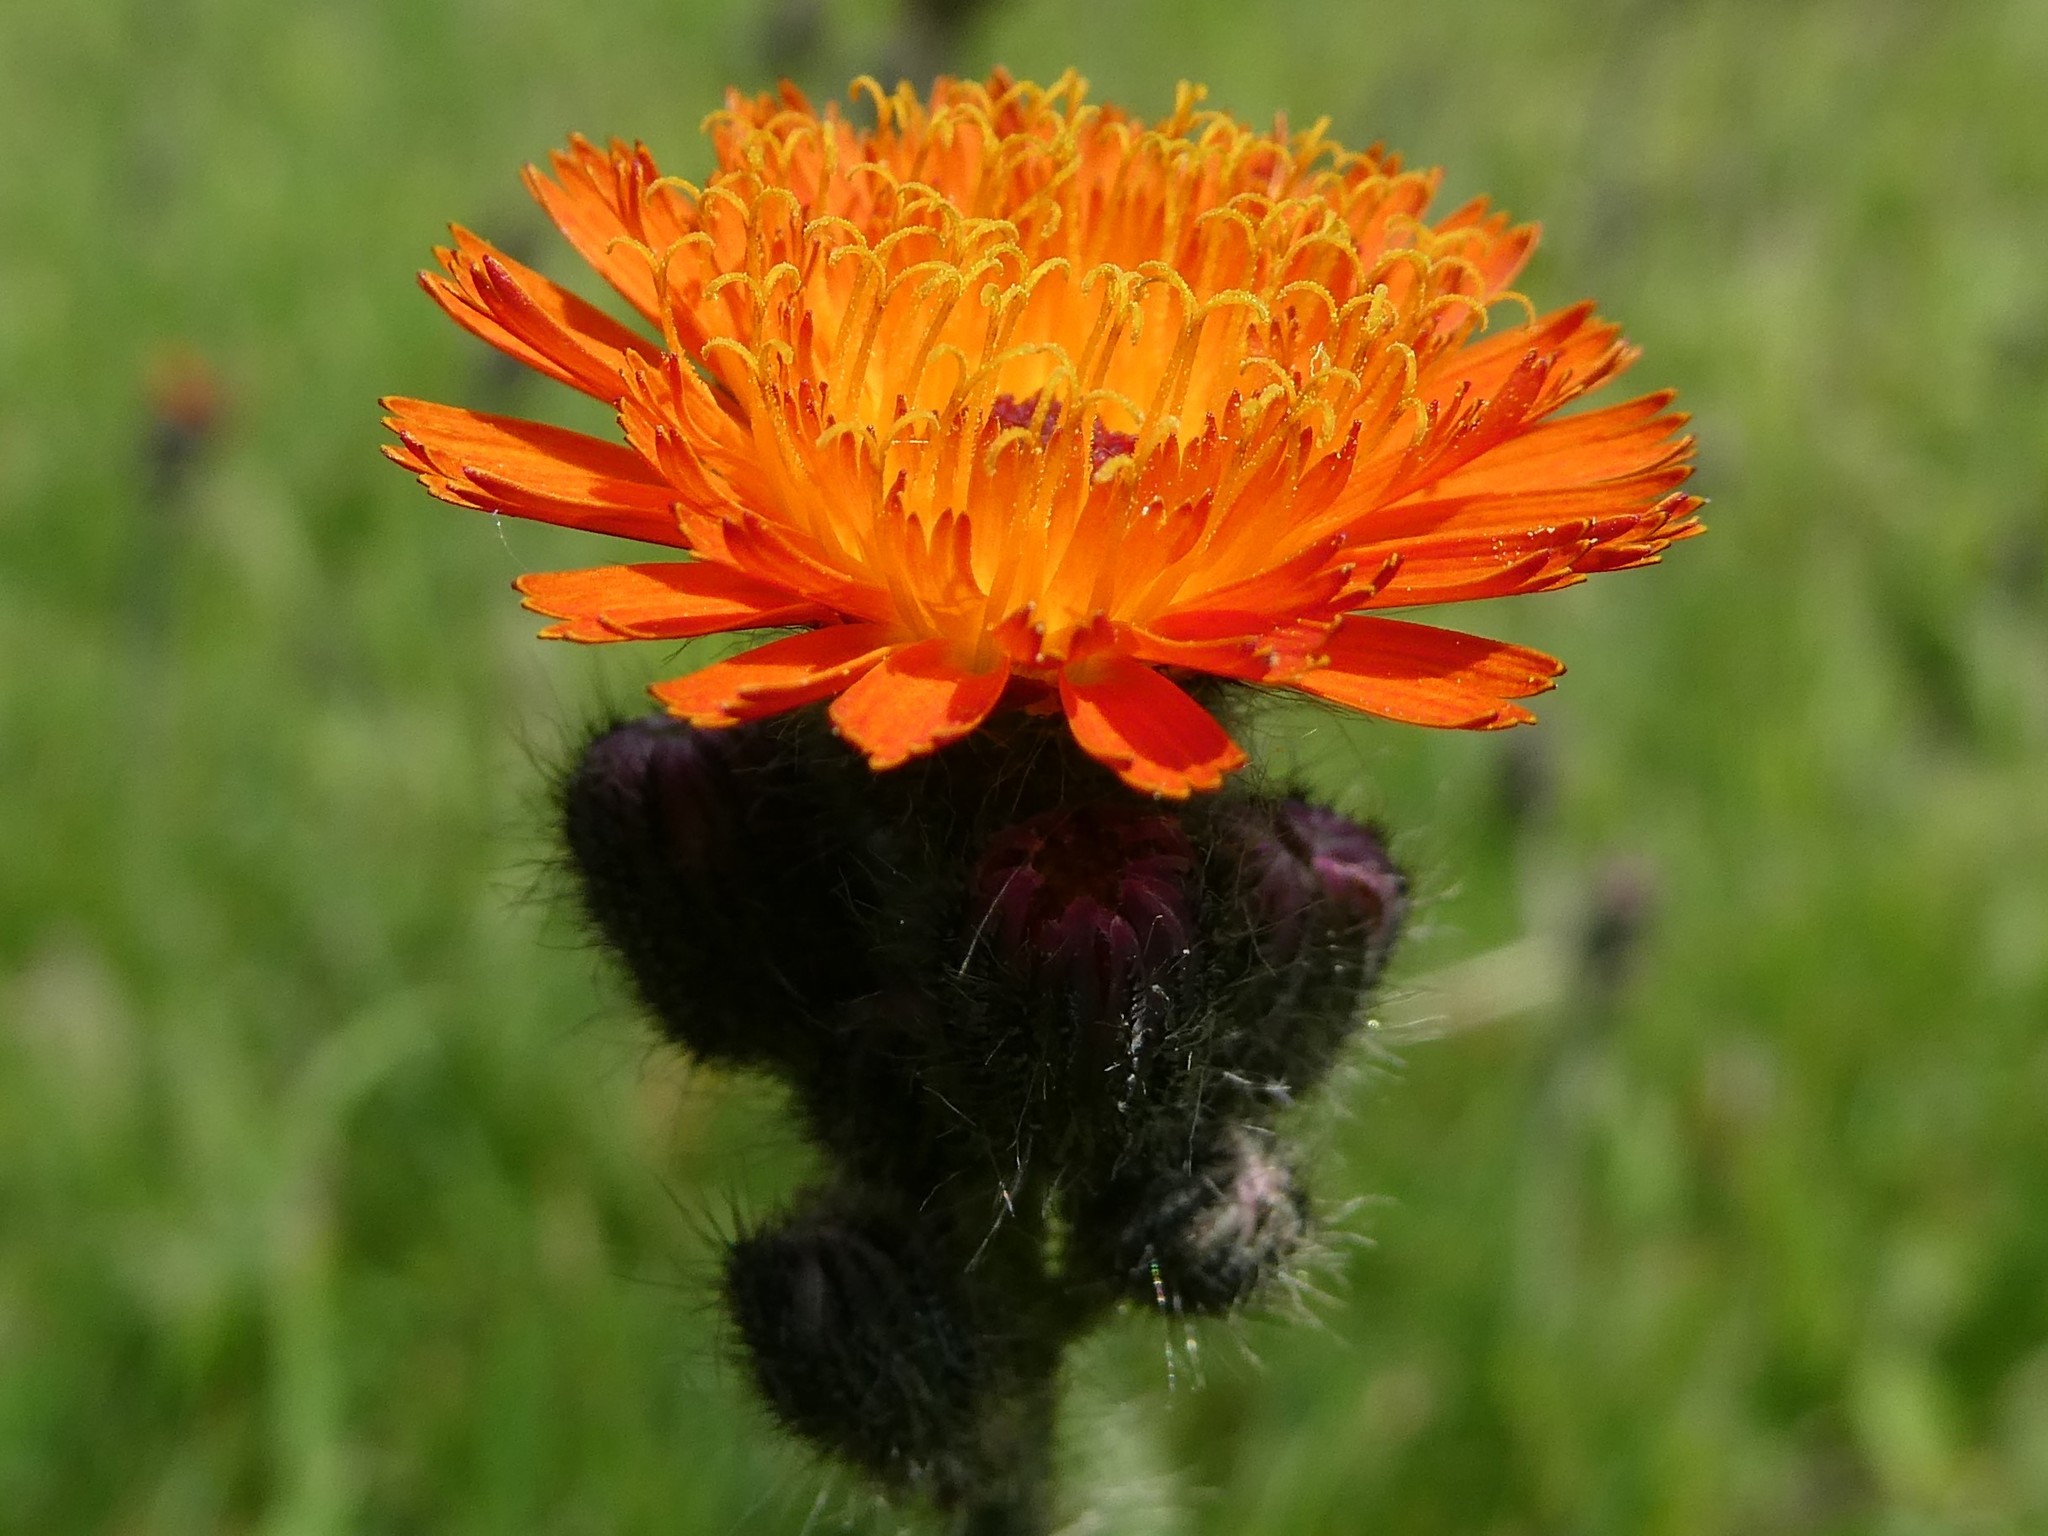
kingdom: Plantae
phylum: Tracheophyta
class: Magnoliopsida
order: Asterales
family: Asteraceae
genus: Pilosella
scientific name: Pilosella aurantiaca
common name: Fox-and-cubs
